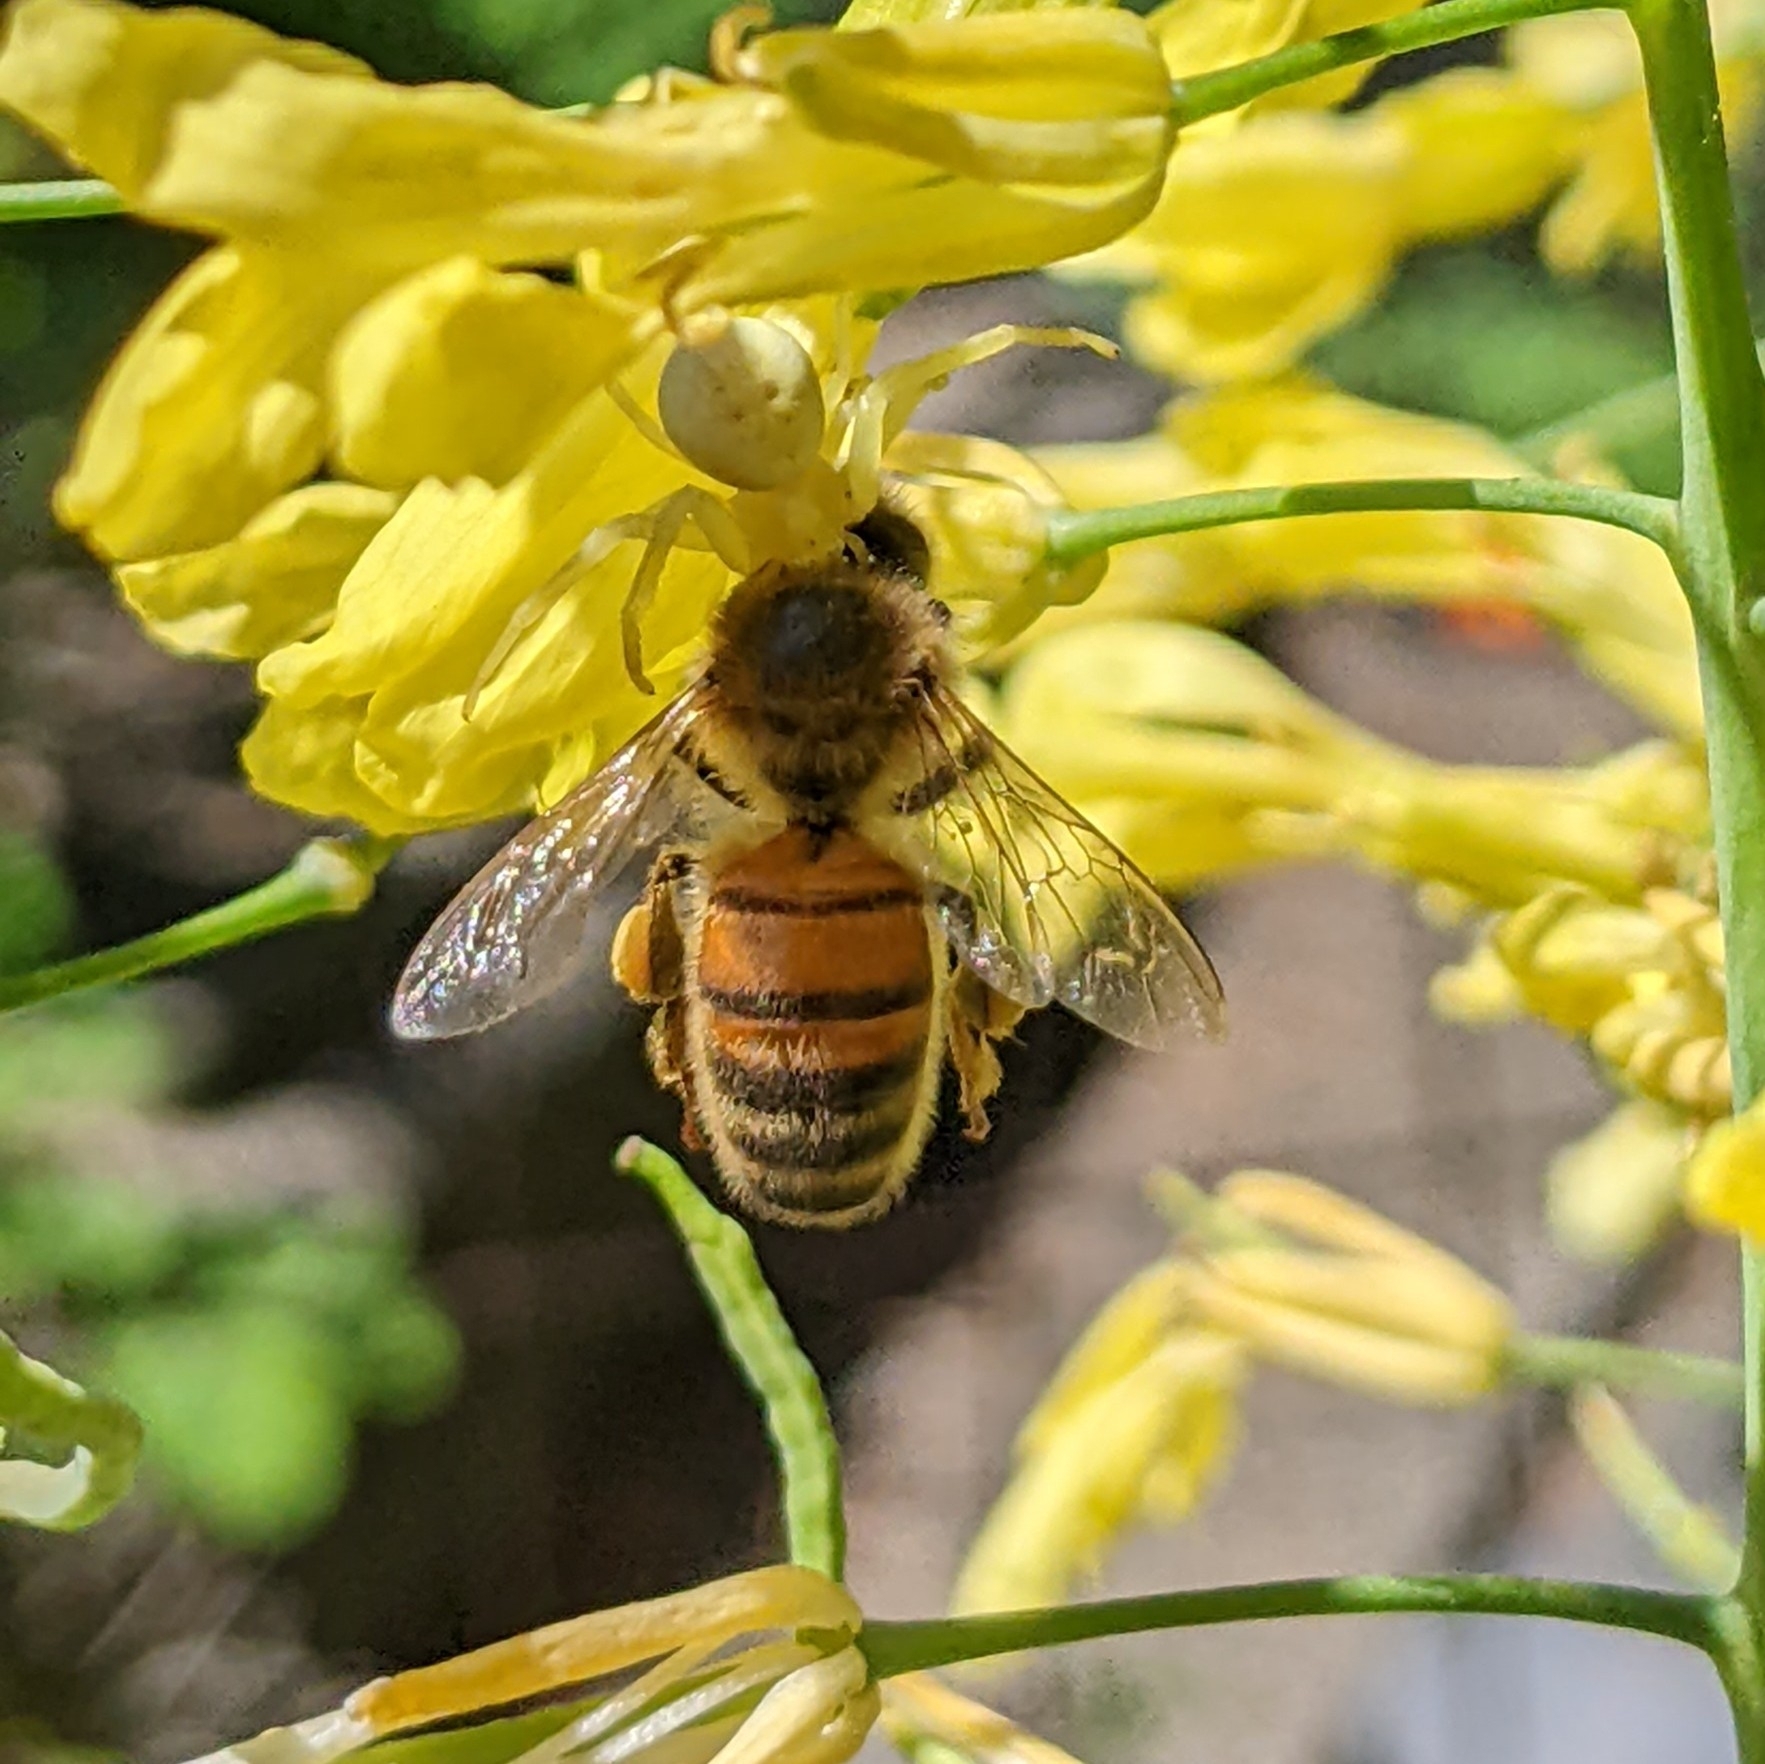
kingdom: Animalia
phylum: Arthropoda
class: Arachnida
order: Araneae
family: Thomisidae
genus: Misumena
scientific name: Misumena vatia
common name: Goldenrod crab spider
